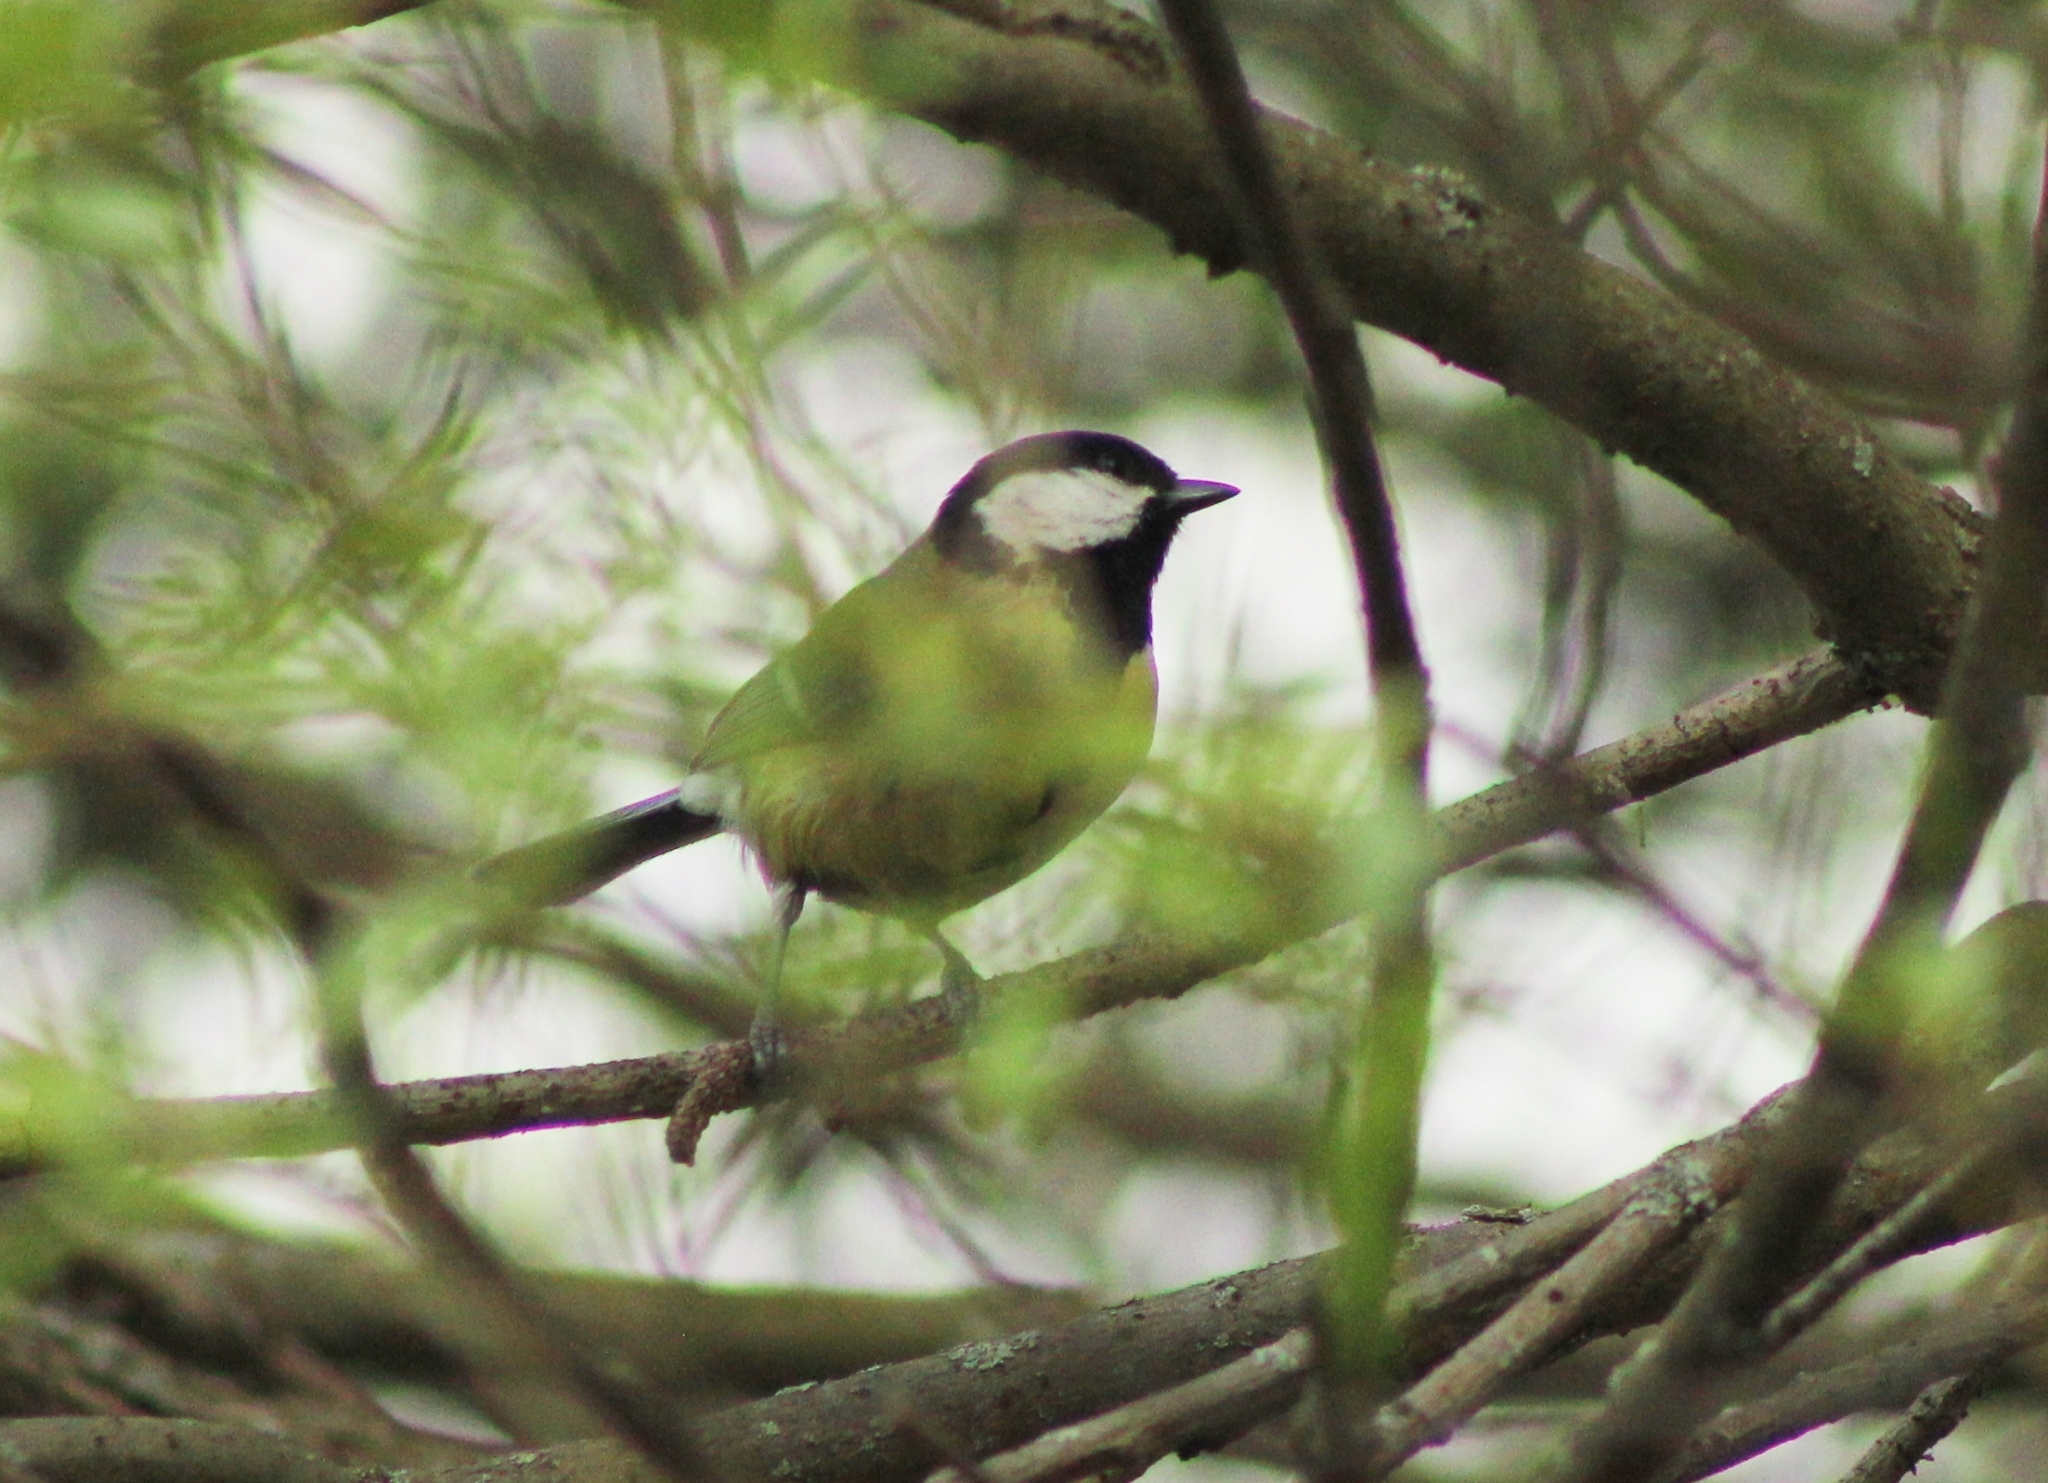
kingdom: Animalia
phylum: Chordata
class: Aves
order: Passeriformes
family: Paridae
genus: Parus
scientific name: Parus major
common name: Great tit
